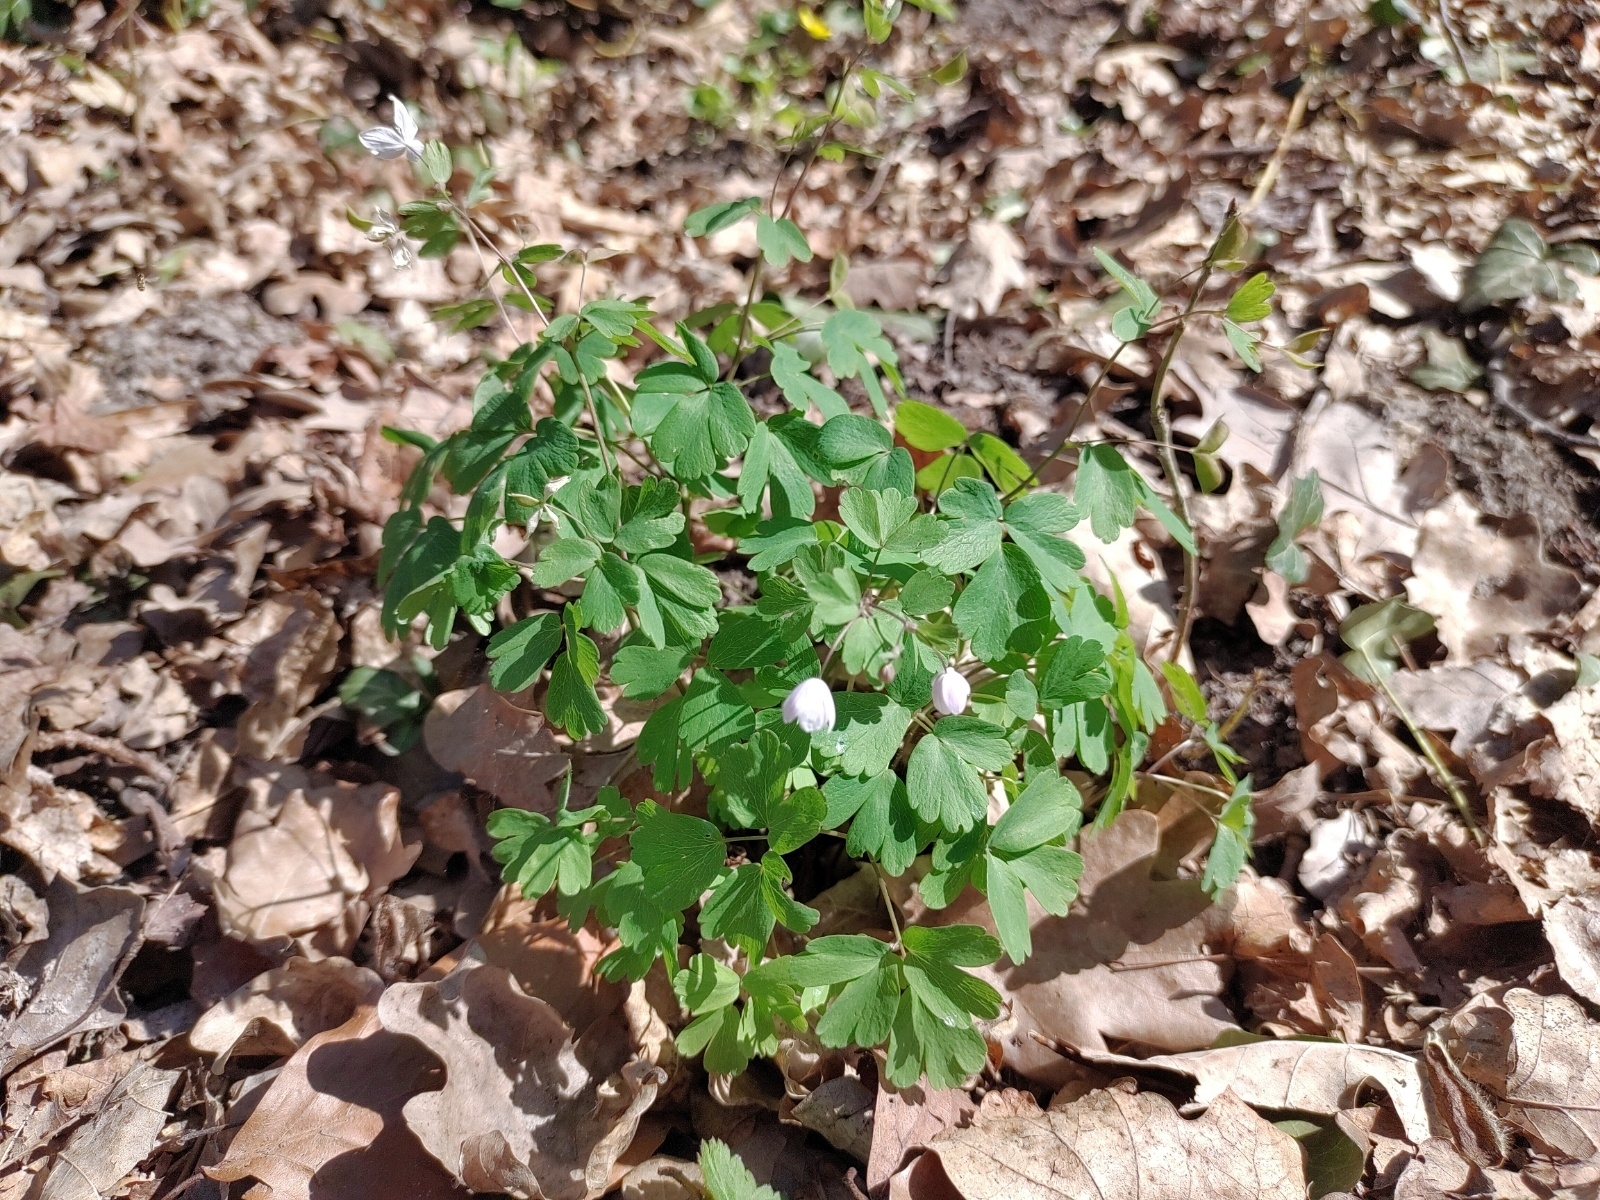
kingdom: Plantae
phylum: Tracheophyta
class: Magnoliopsida
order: Ranunculales
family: Ranunculaceae
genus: Isopyrum
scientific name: Isopyrum thalictroides
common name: Isopyrum
